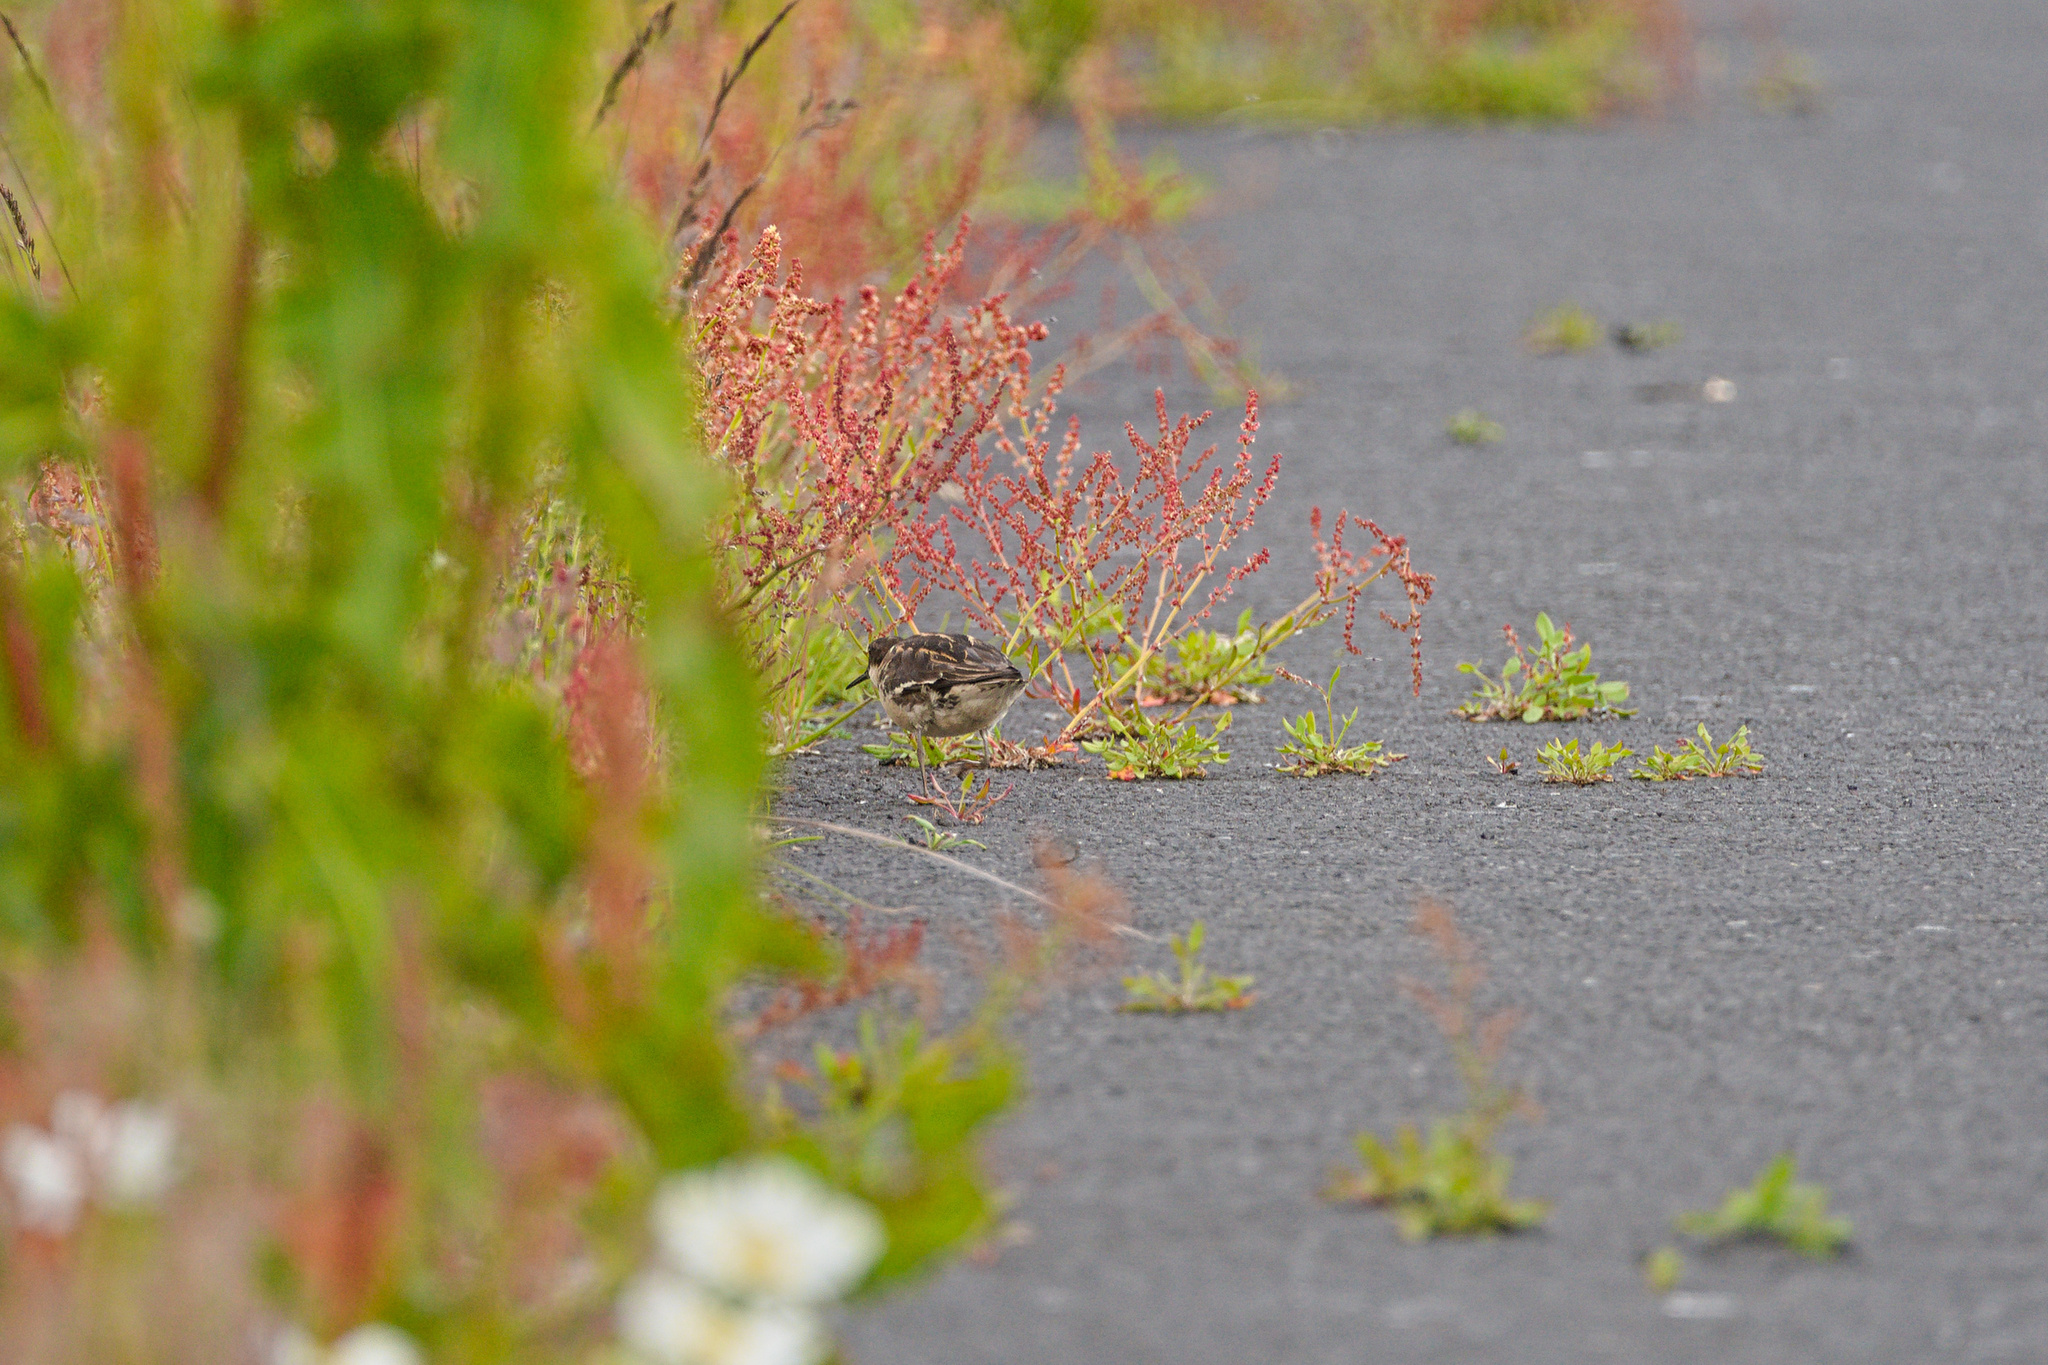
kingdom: Animalia
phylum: Chordata
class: Aves
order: Charadriiformes
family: Scolopacidae
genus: Phalaropus
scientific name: Phalaropus lobatus
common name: Red-necked phalarope
